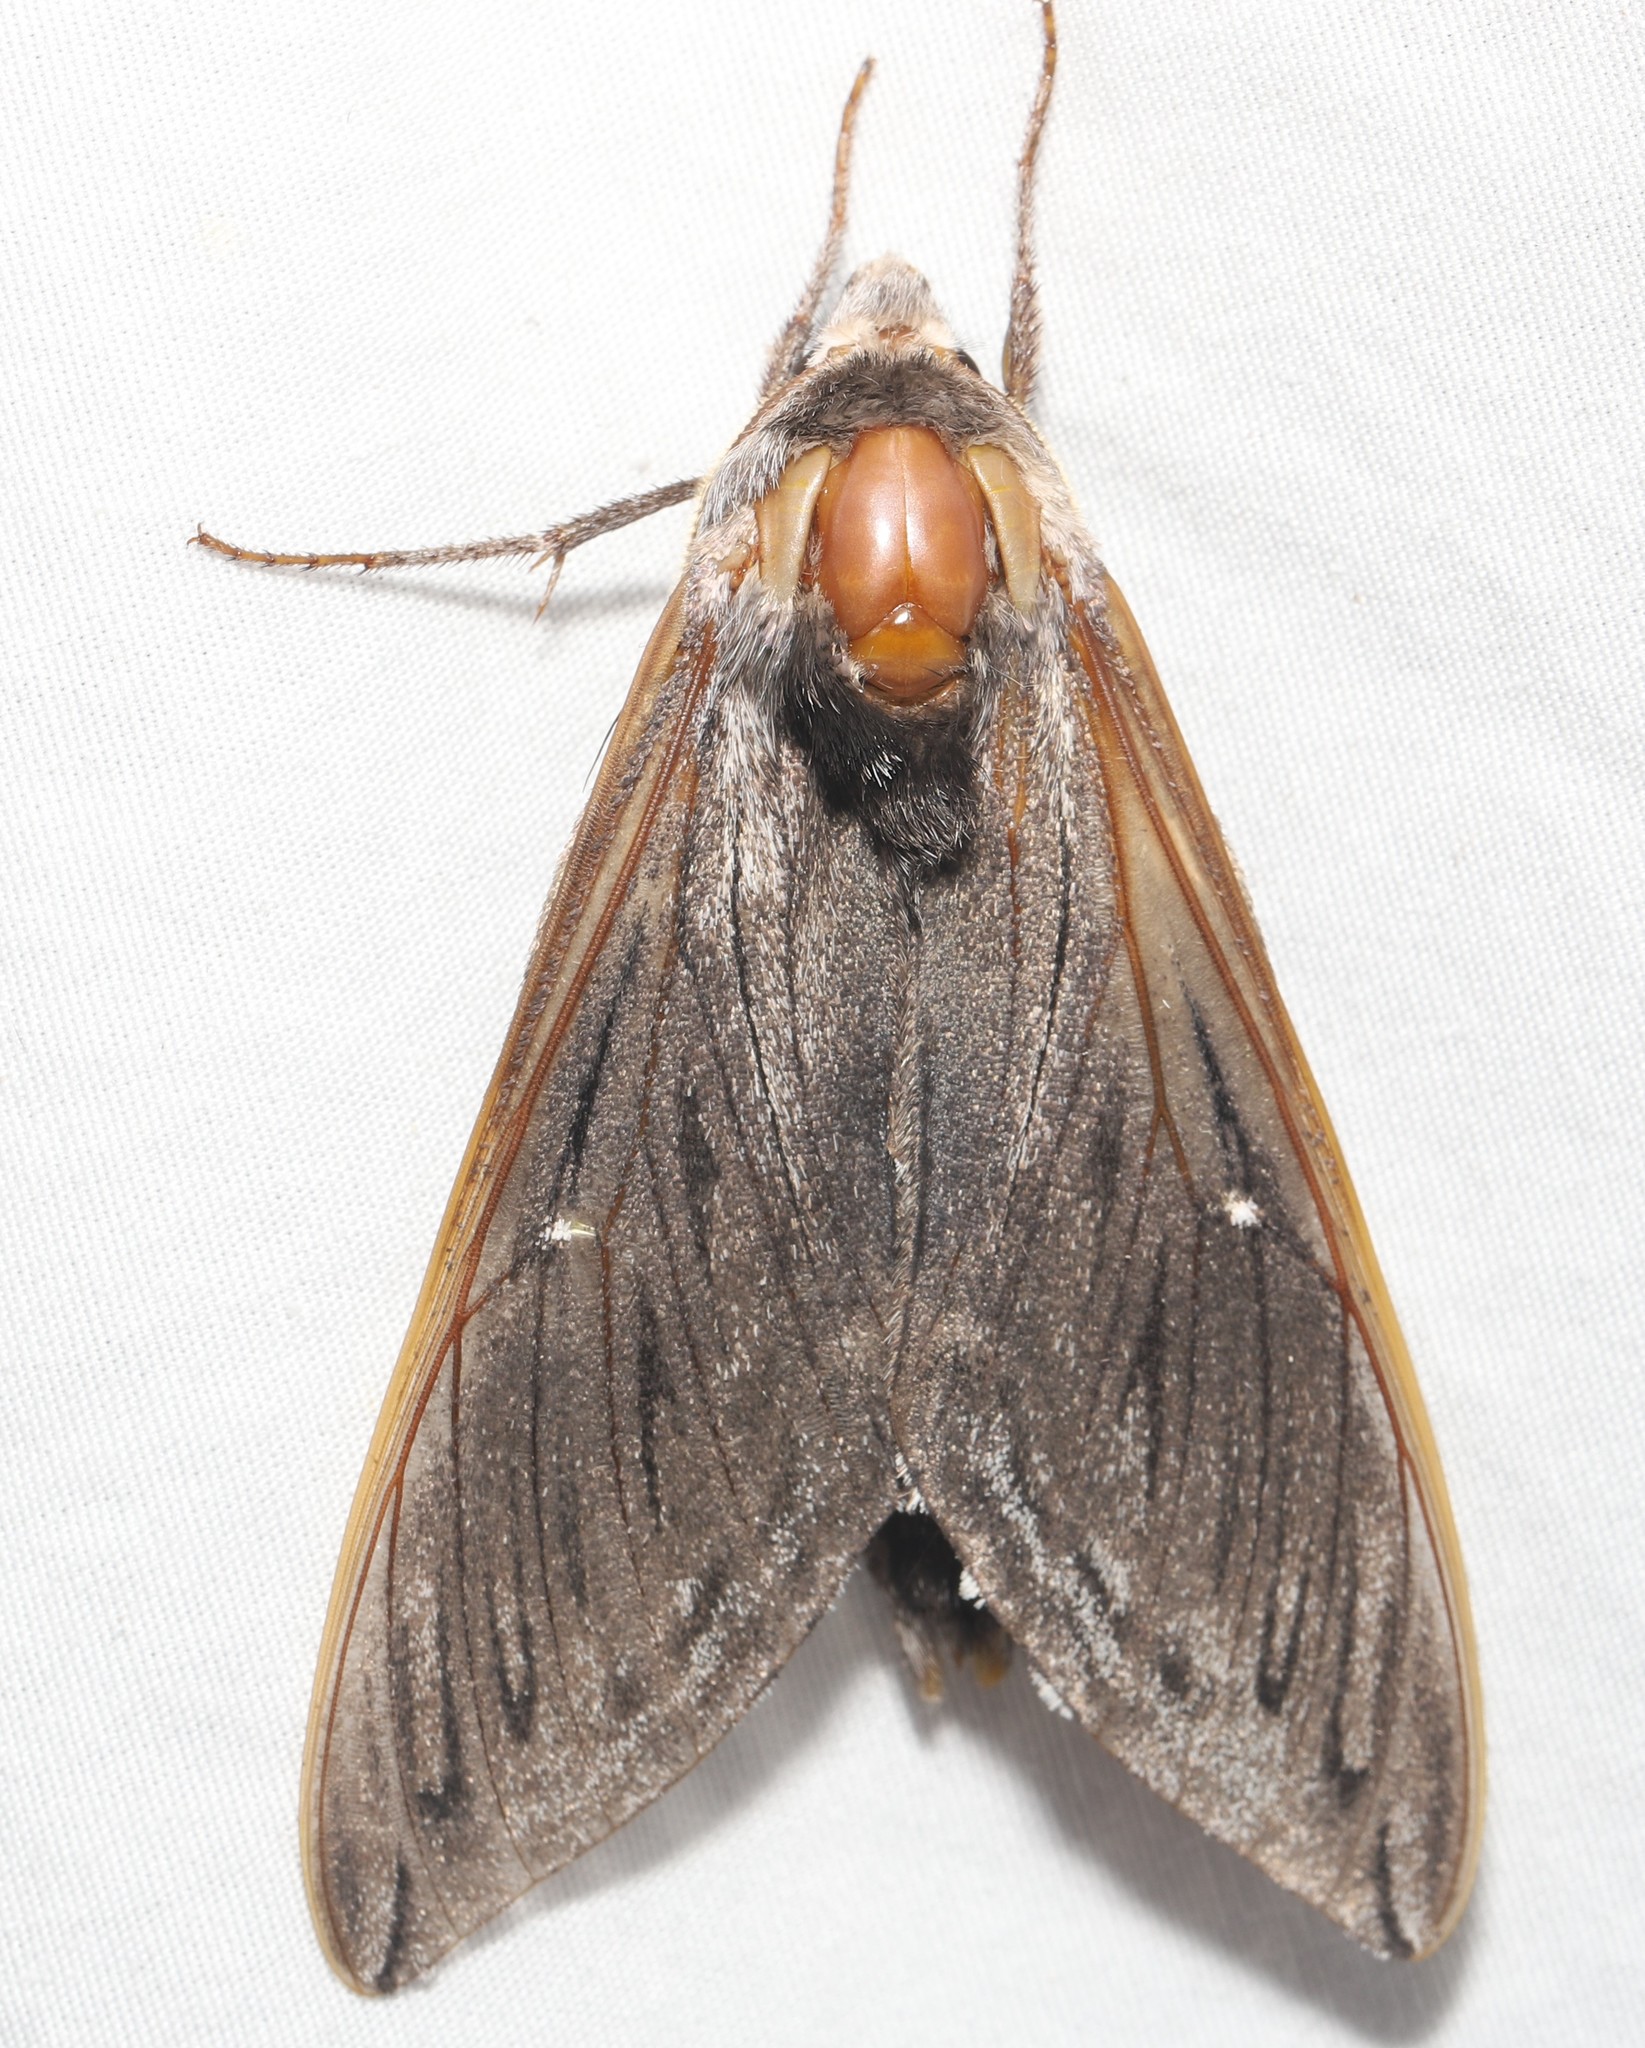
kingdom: Animalia
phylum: Arthropoda
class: Insecta
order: Lepidoptera
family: Sphingidae
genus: Sphinx
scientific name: Sphinx poecila
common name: Northern apple sphinx
